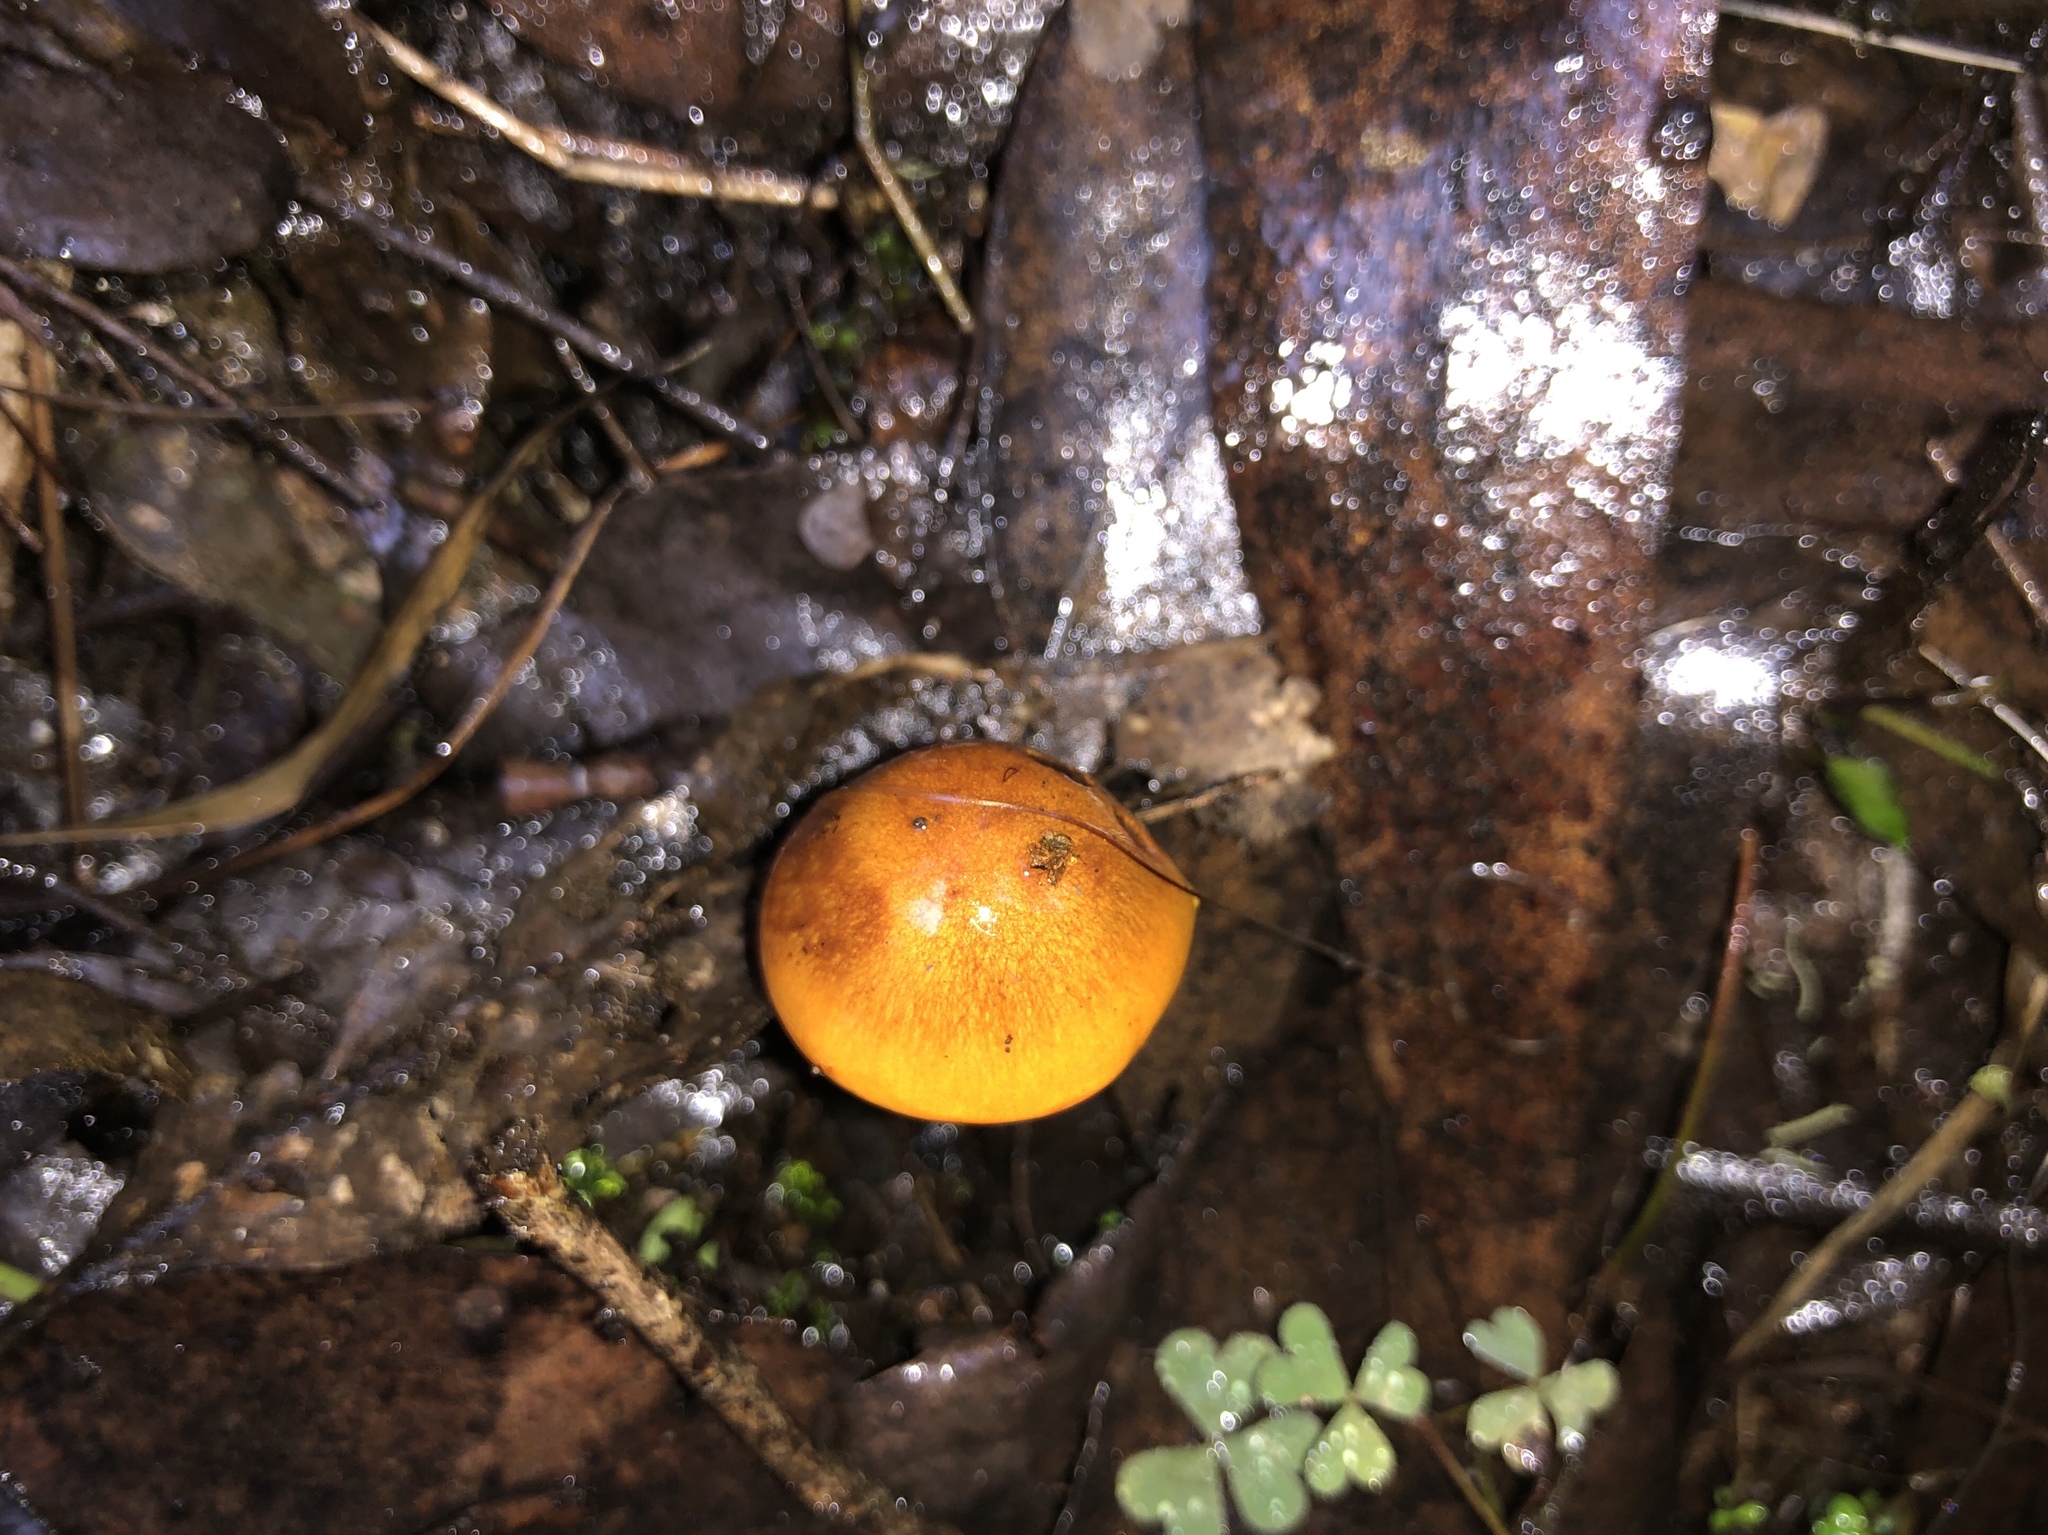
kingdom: Fungi
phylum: Basidiomycota
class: Agaricomycetes
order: Agaricales
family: Cortinariaceae
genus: Cortinarius
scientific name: Cortinarius sinapicolor
